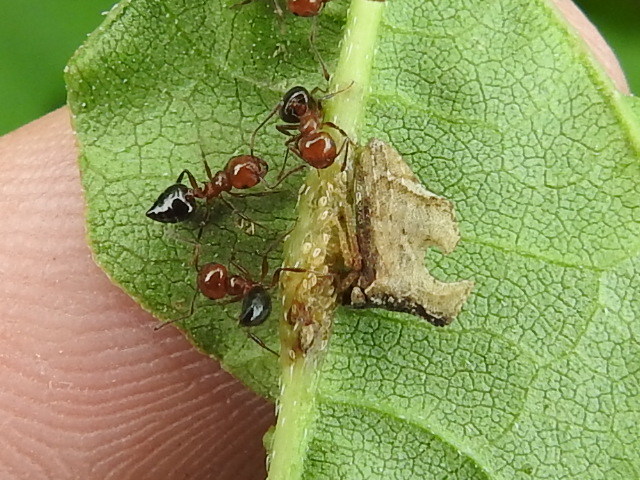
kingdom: Animalia
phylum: Arthropoda
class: Insecta
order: Hemiptera
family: Membracidae
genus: Entylia
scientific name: Entylia carinata
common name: Keeled treehopper
